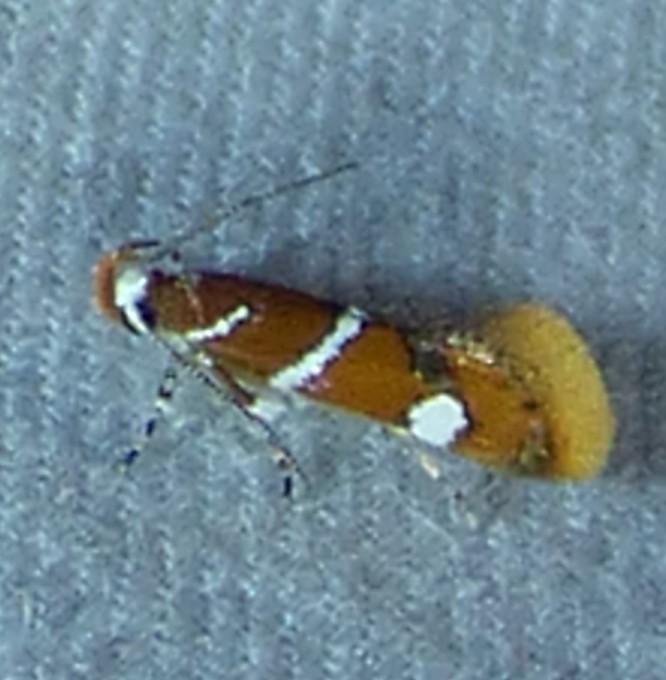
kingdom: Animalia
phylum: Arthropoda
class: Insecta
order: Lepidoptera
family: Oecophoridae
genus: Promalactis
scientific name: Promalactis suzukiella
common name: Moth
